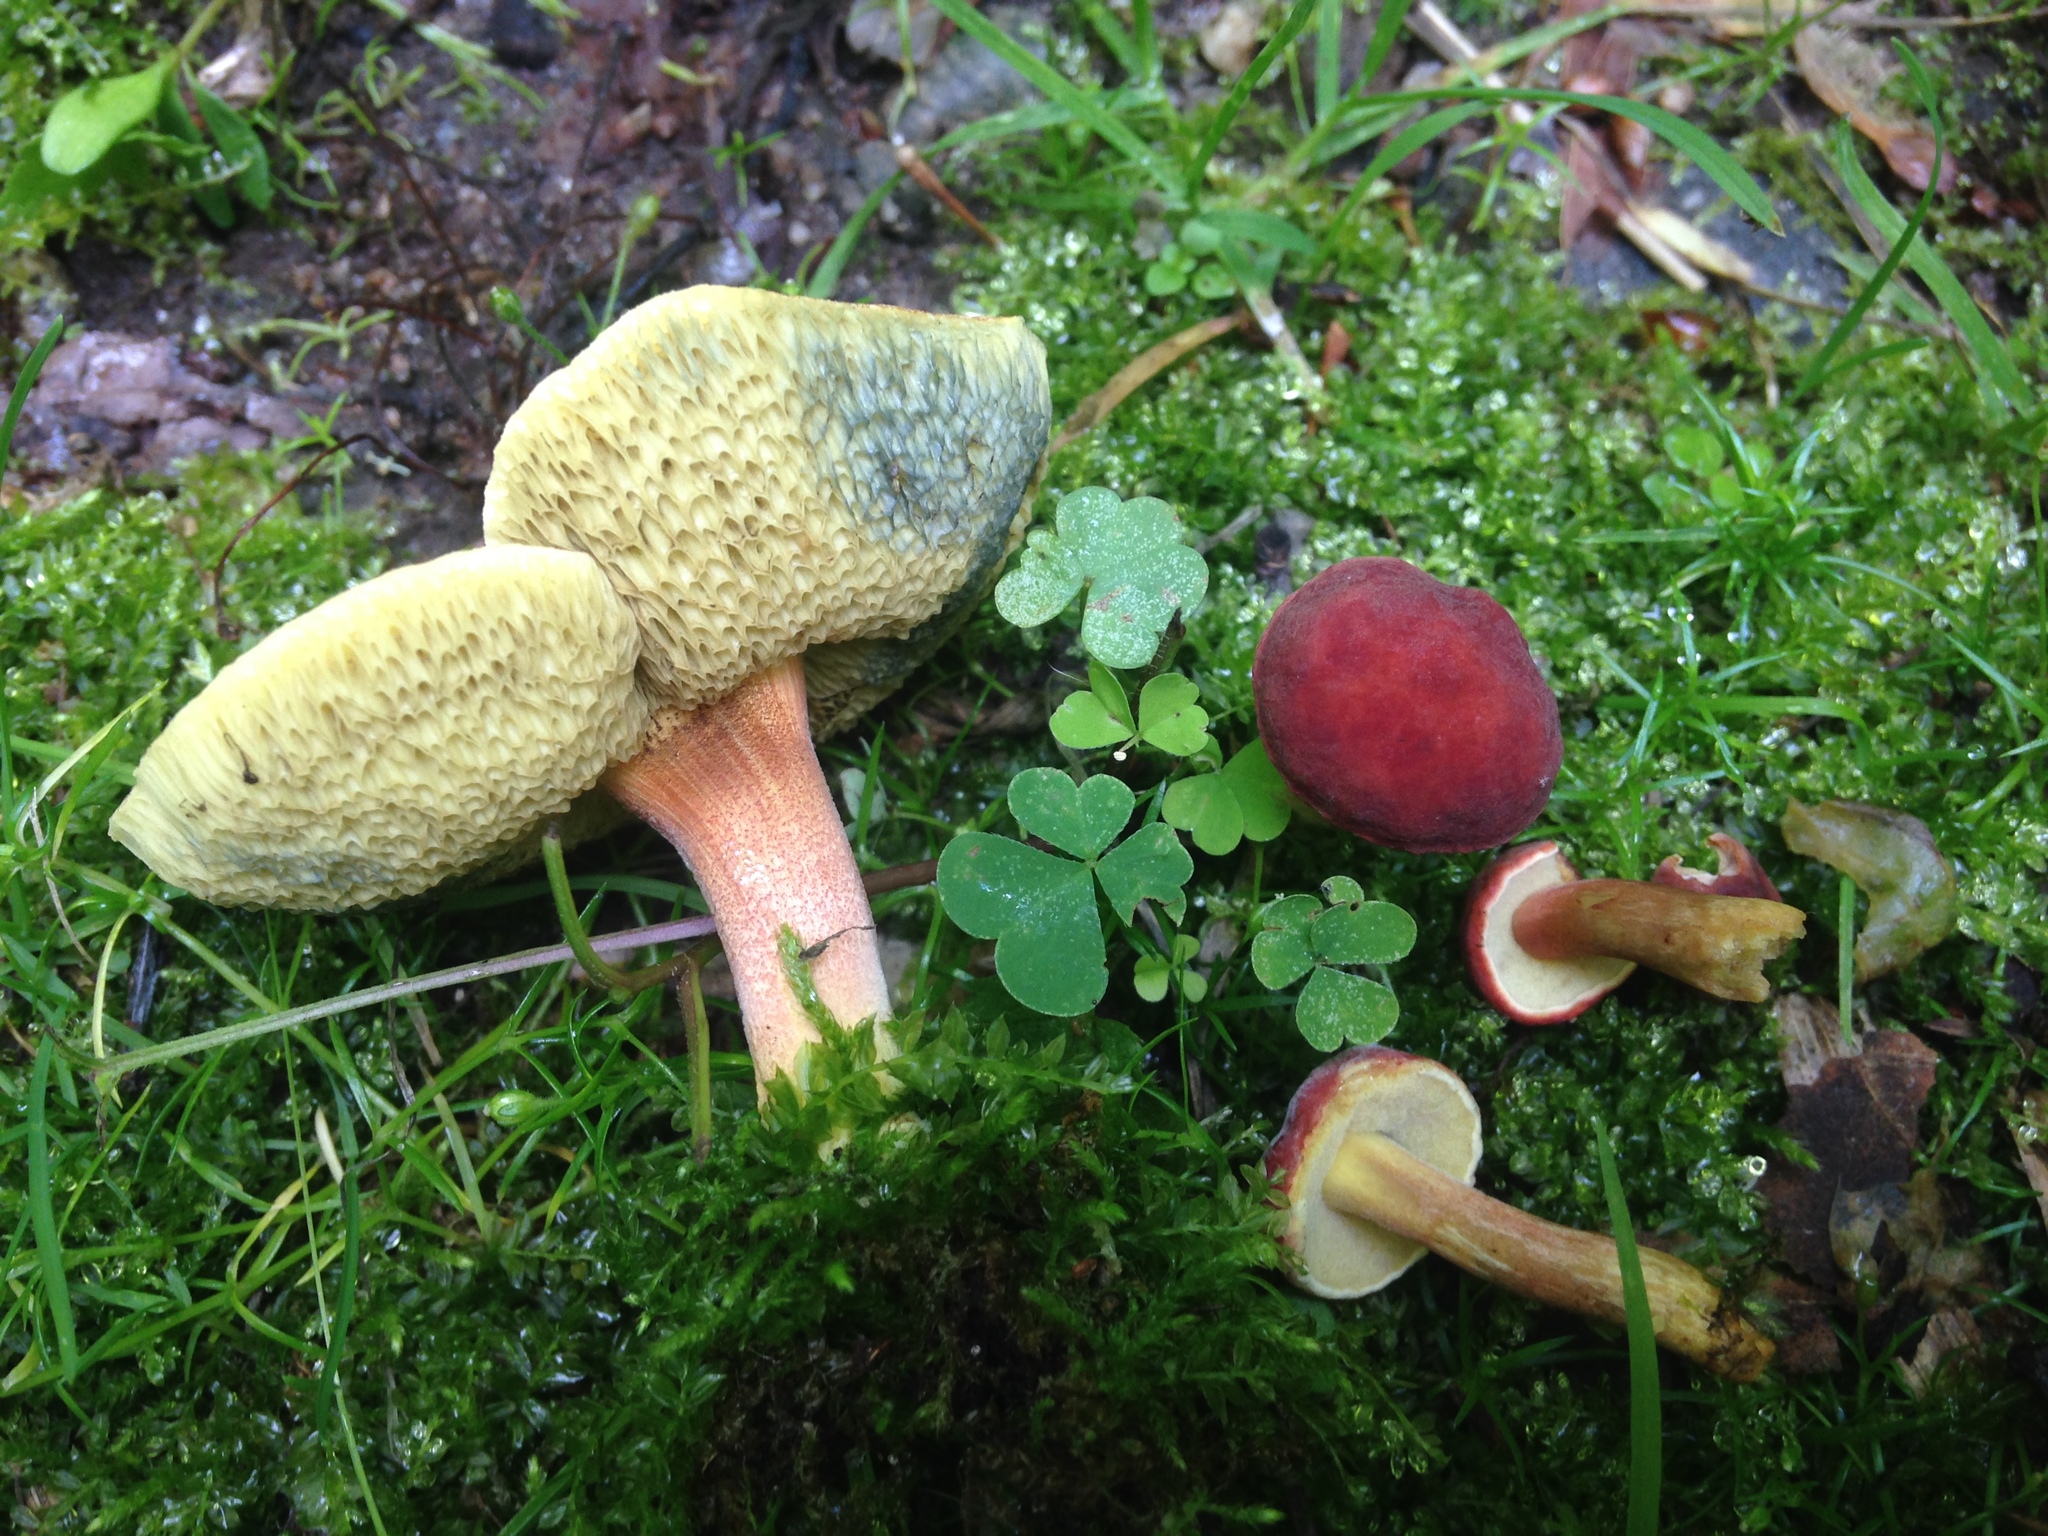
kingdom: Fungi
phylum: Basidiomycota
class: Agaricomycetes
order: Boletales
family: Boletaceae
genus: Hortiboletus
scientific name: Hortiboletus rubellus
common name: Ruby bolete
